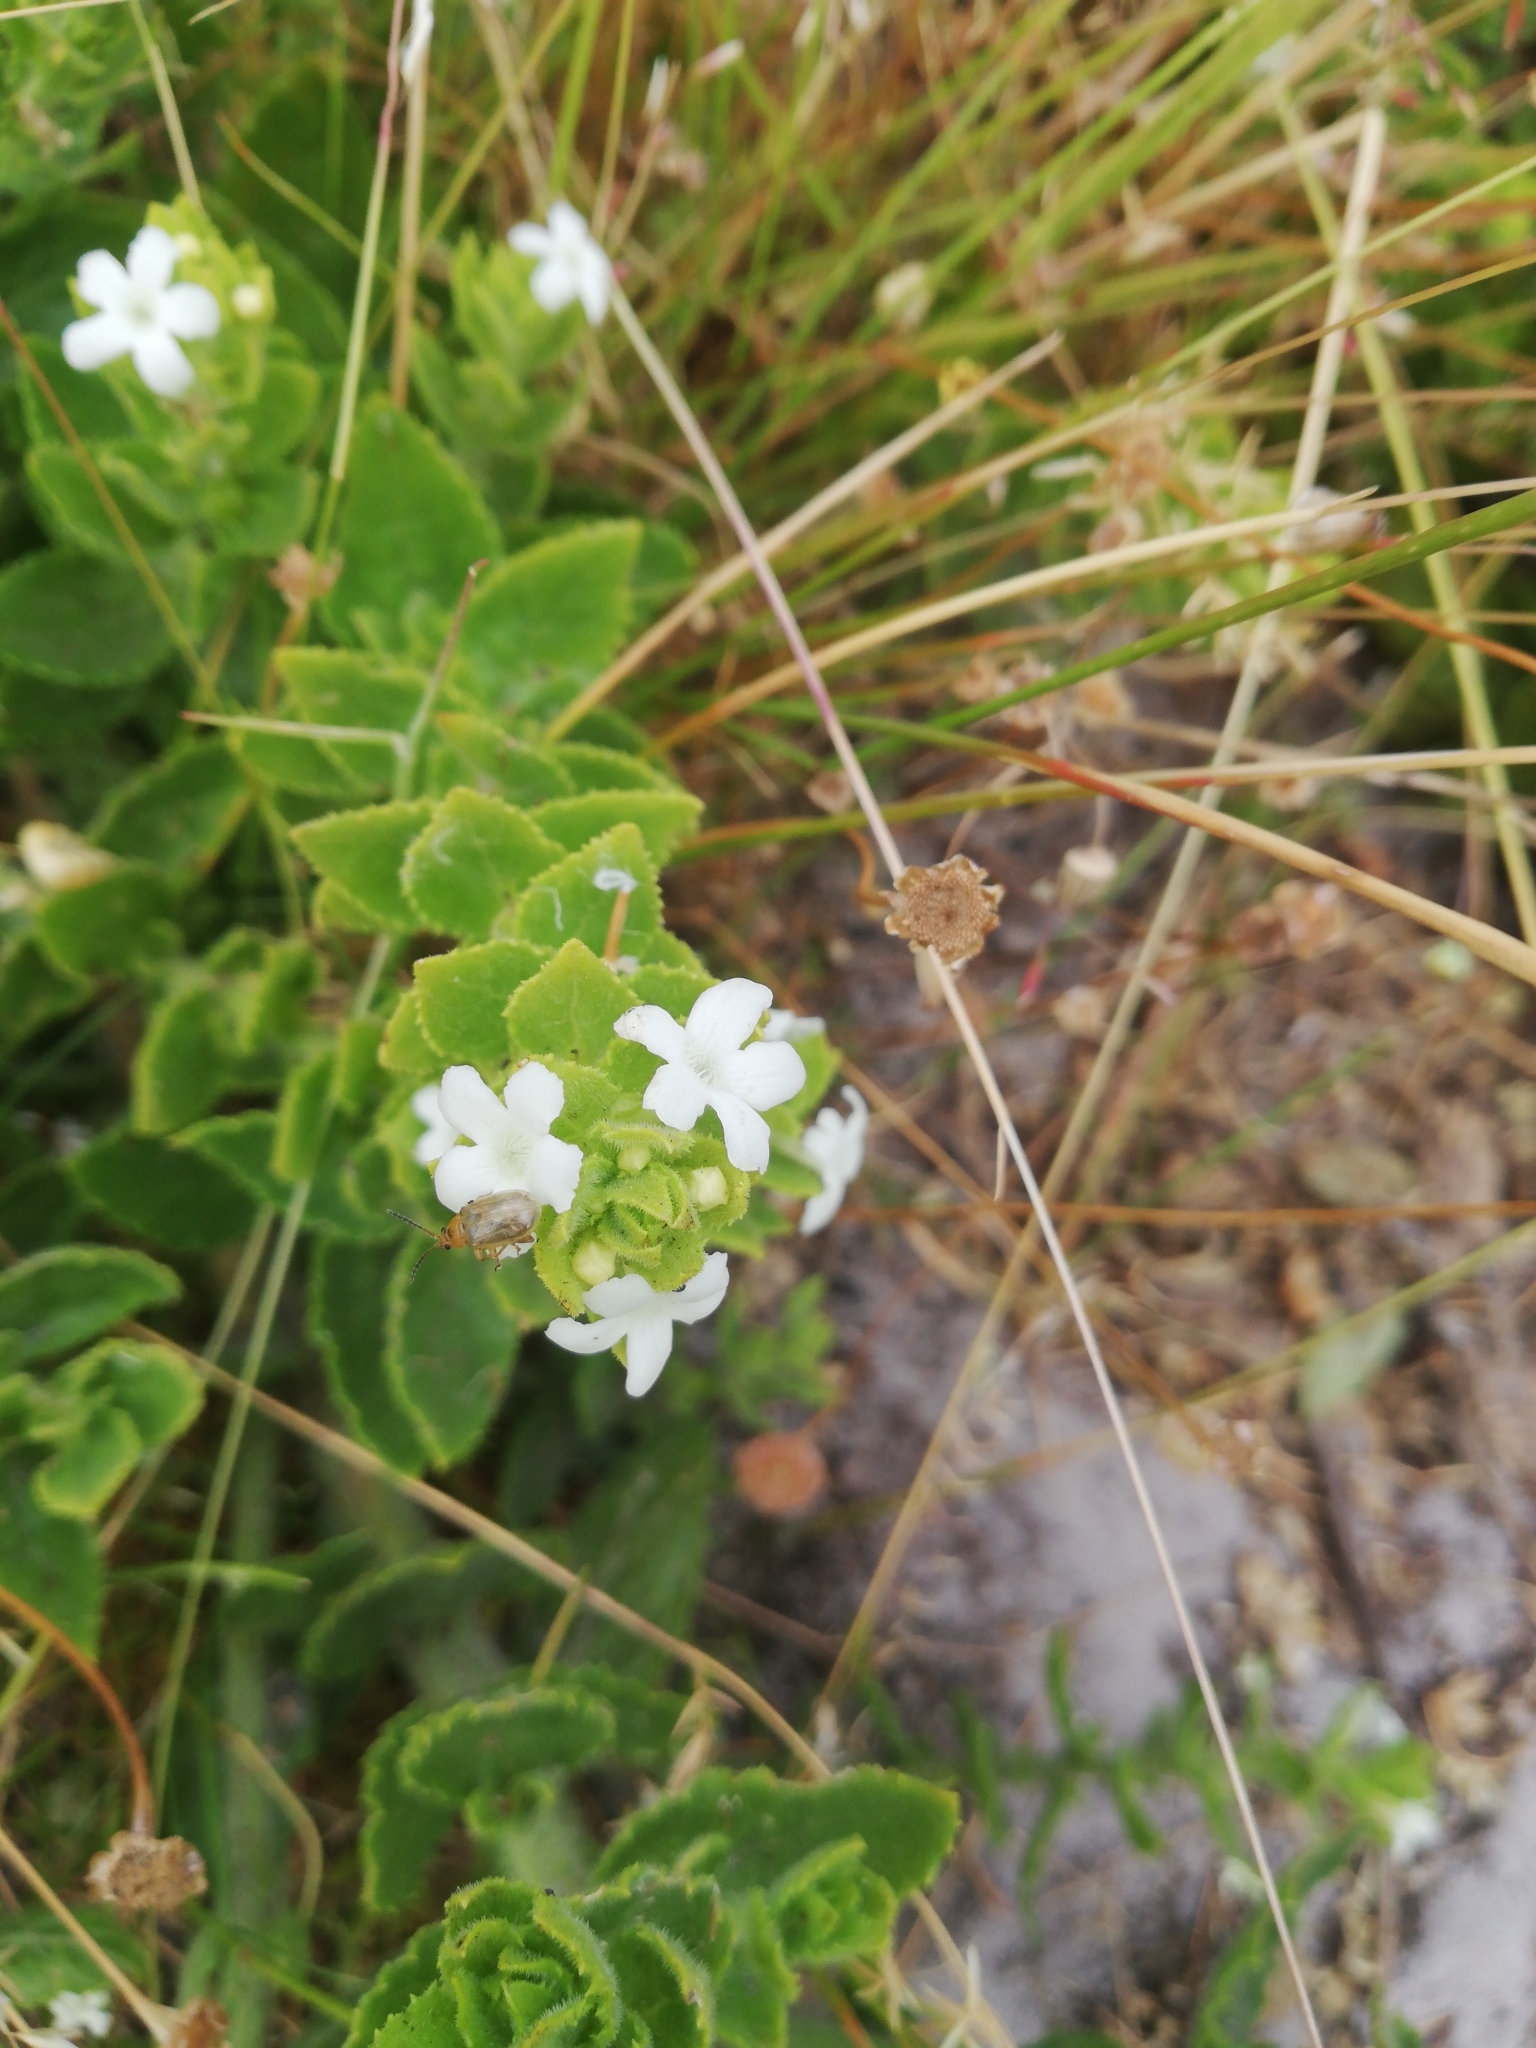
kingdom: Plantae
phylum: Tracheophyta
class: Magnoliopsida
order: Lamiales
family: Scrophulariaceae
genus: Oftia
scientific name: Oftia africana
